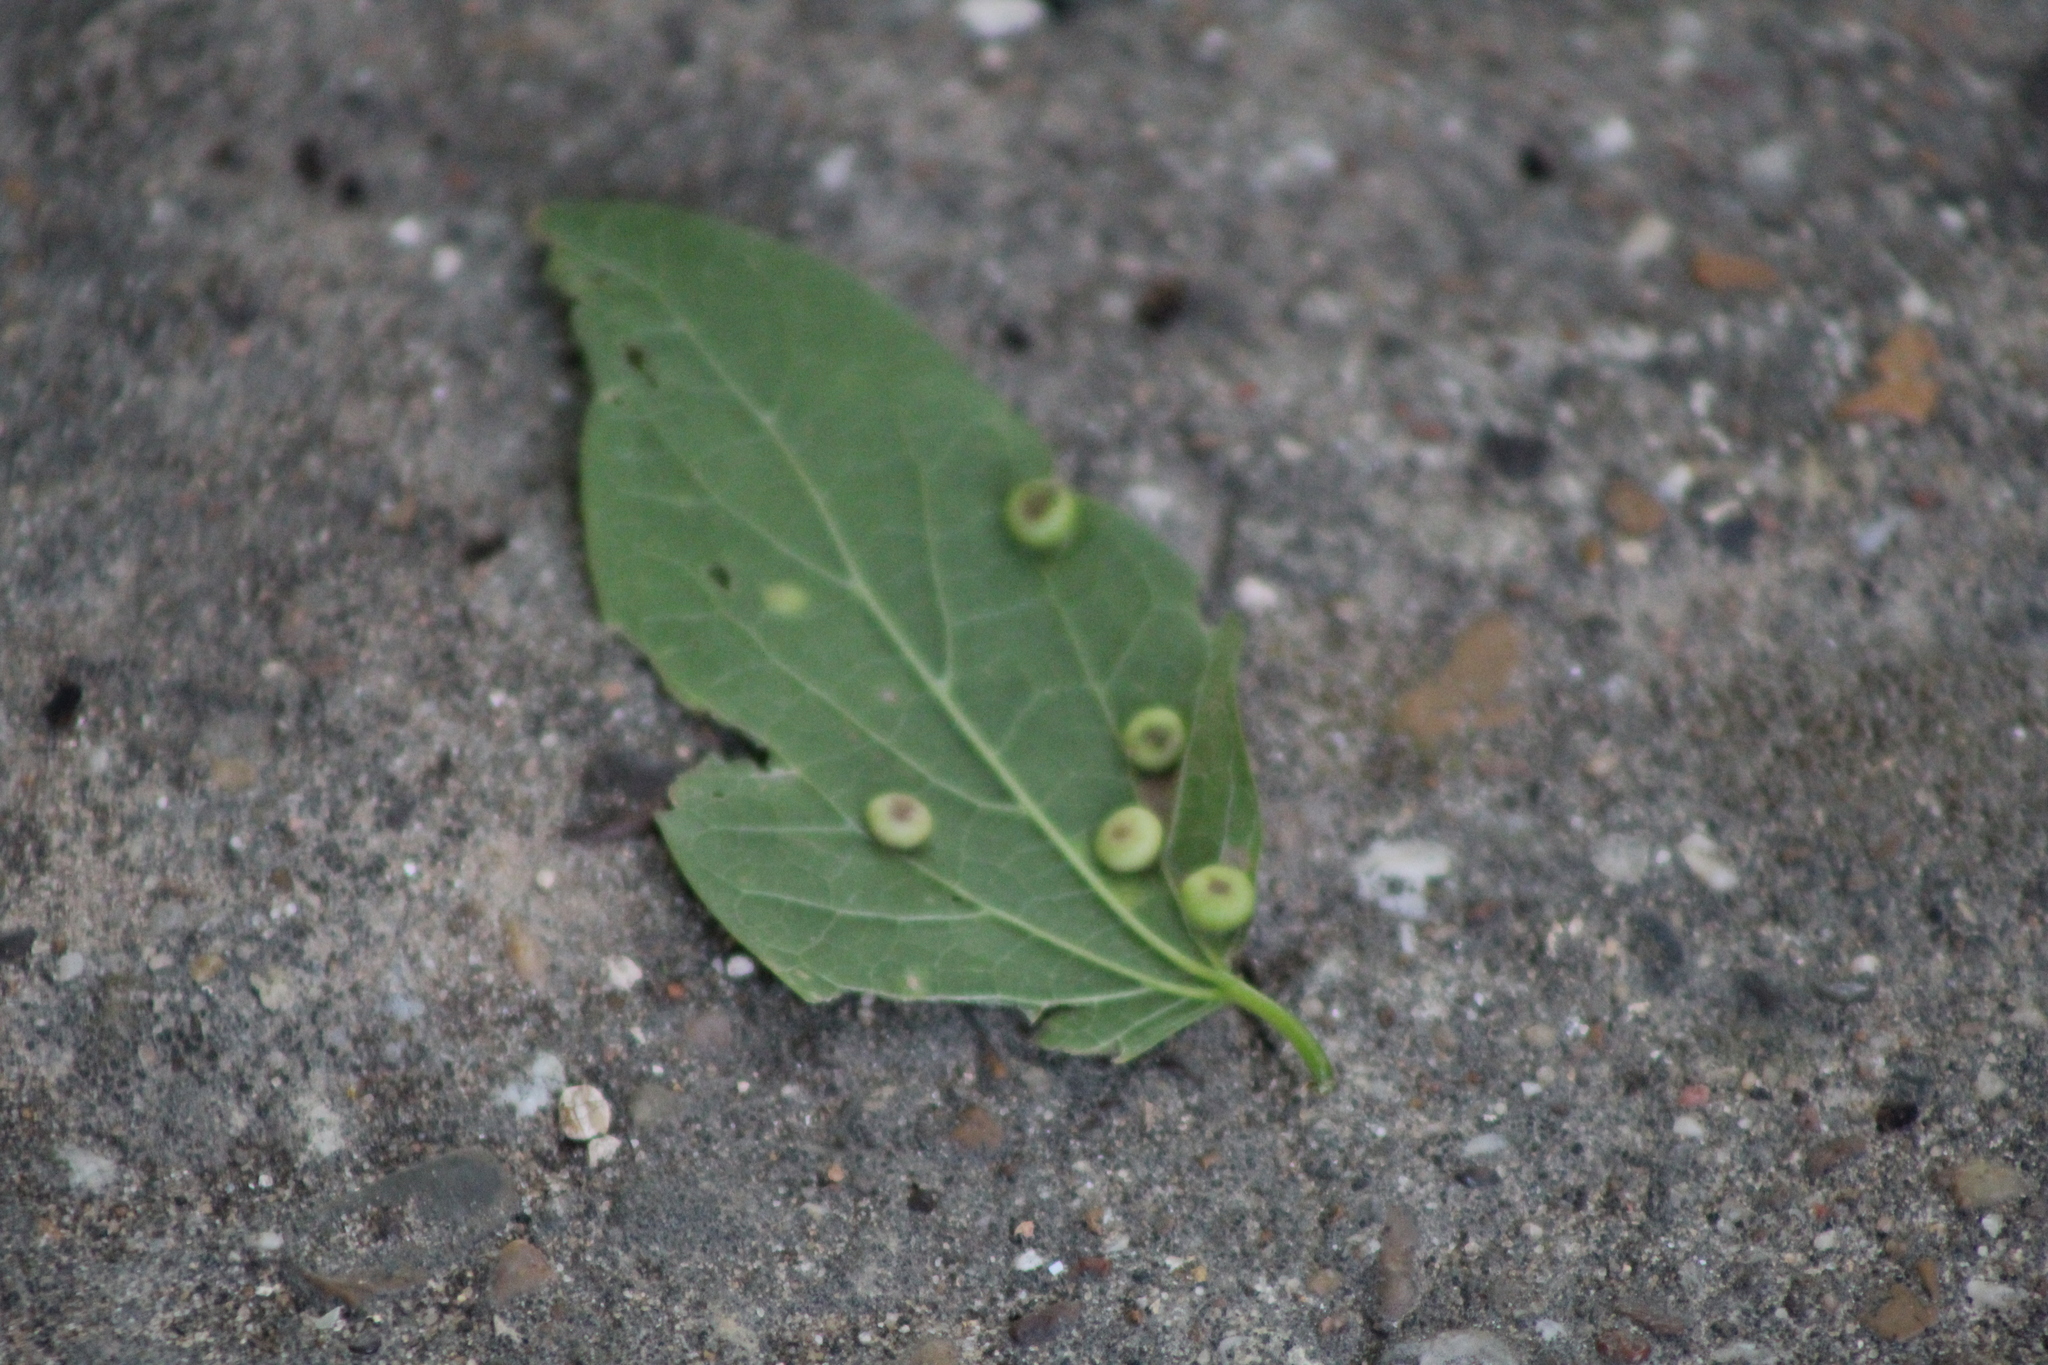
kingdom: Animalia
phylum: Arthropoda
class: Insecta
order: Hemiptera
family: Aphalaridae
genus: Pachypsylla
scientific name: Pachypsylla celtidismamma
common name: Hackberry nipplegall psyllid
